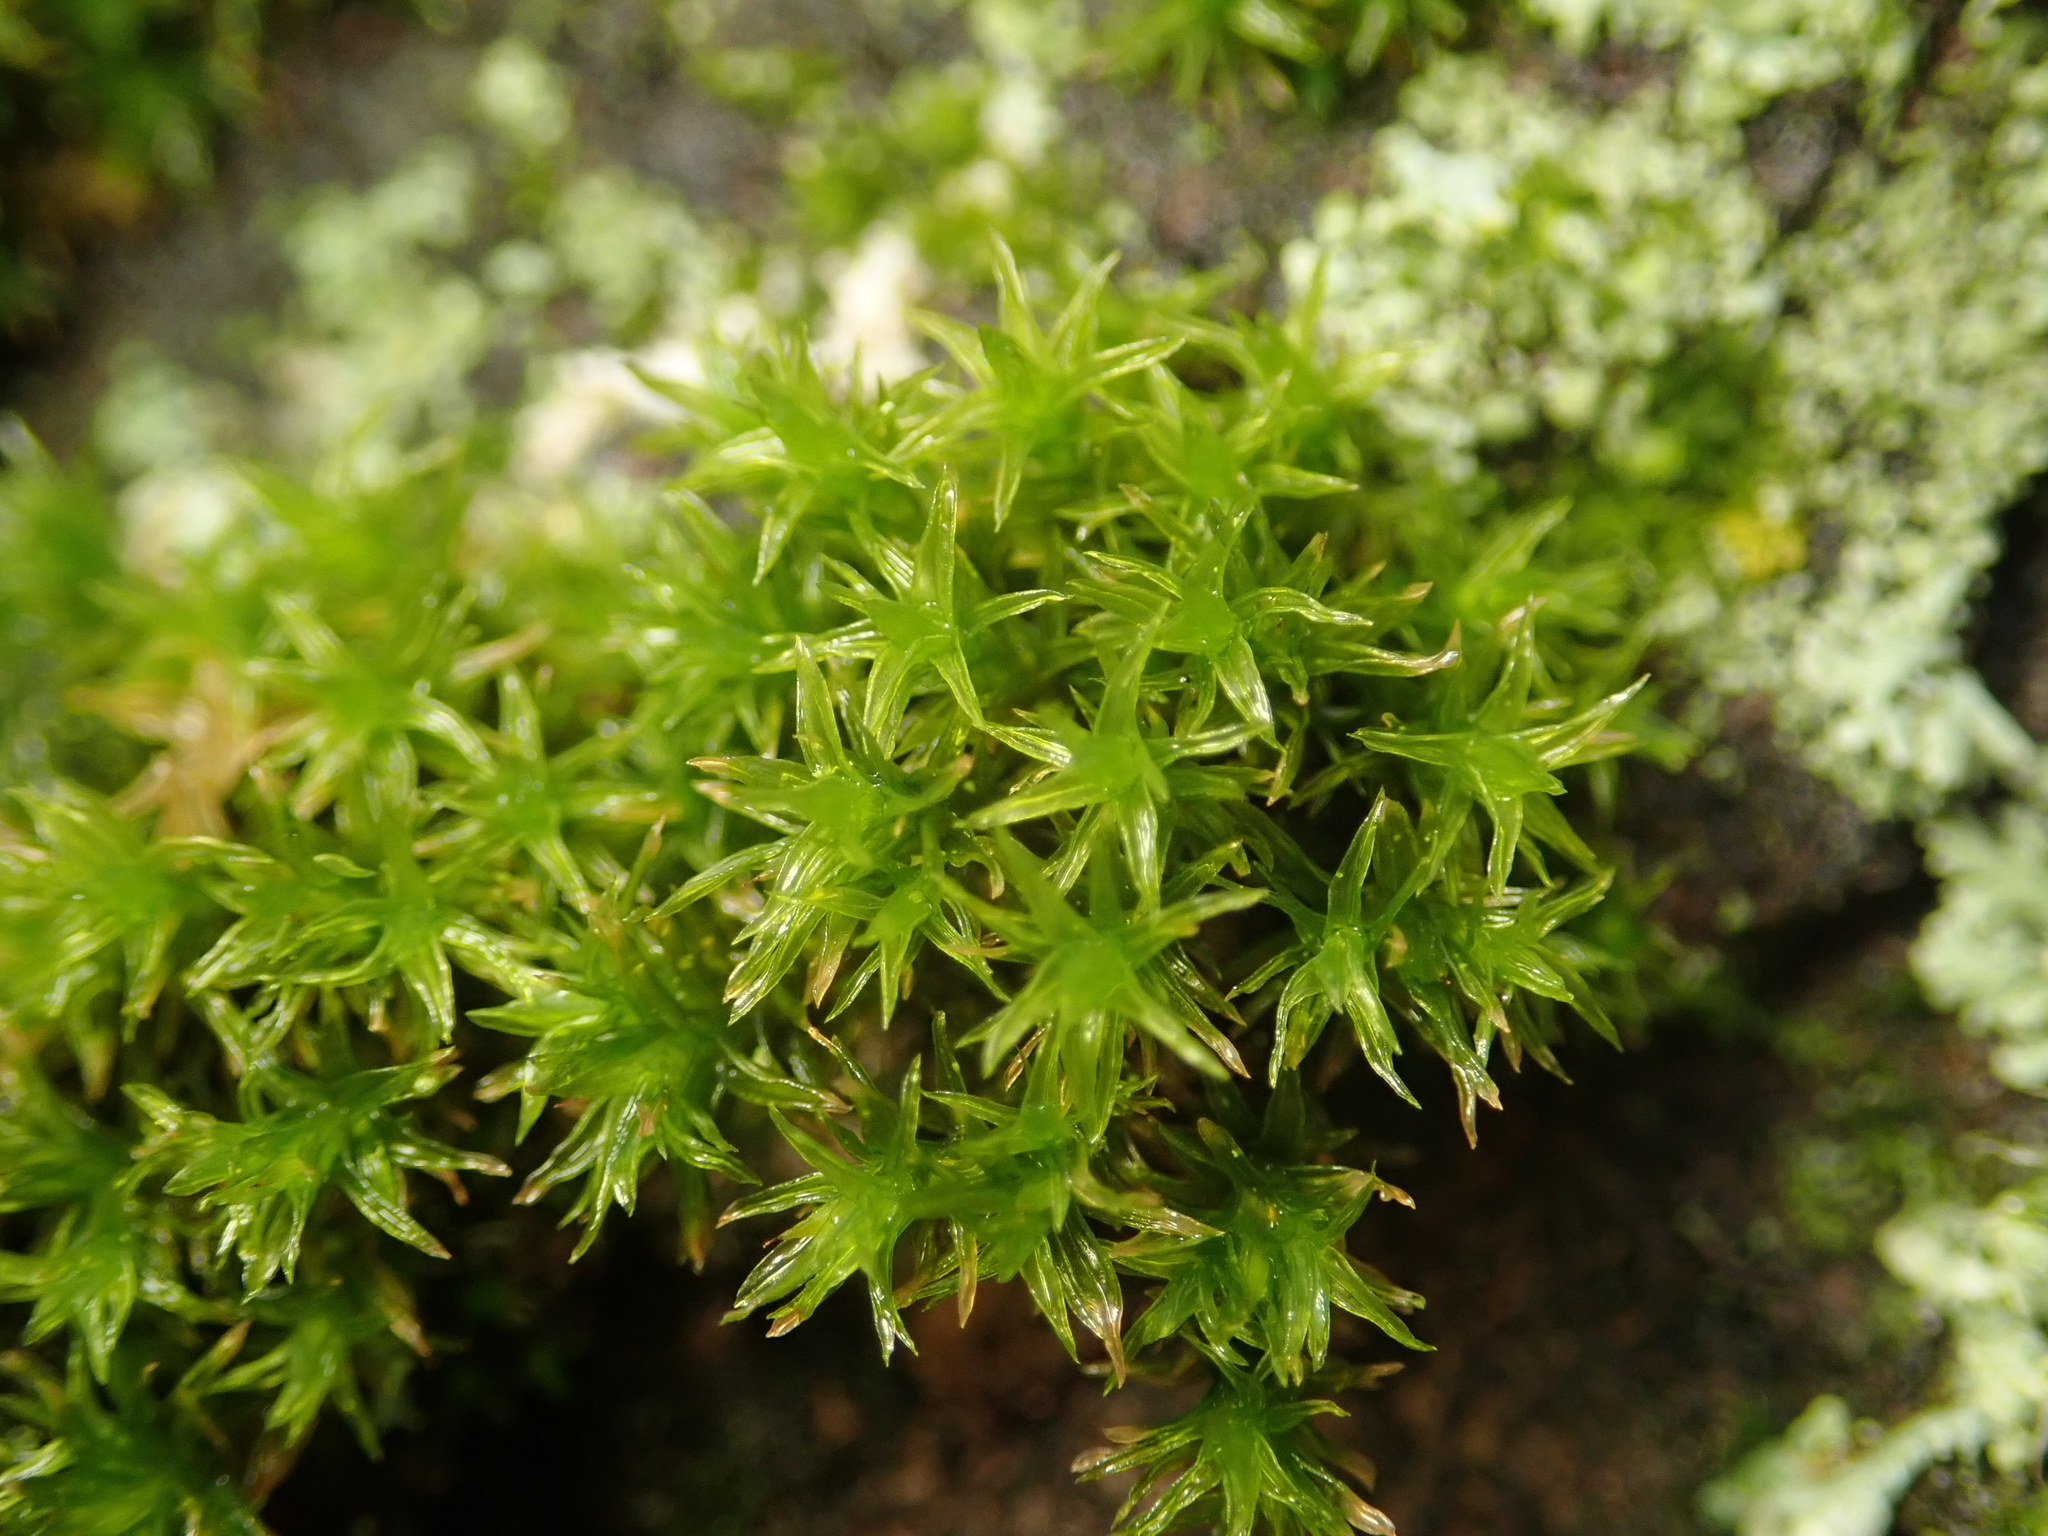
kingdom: Plantae
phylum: Bryophyta
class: Bryopsida
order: Orthotrichales
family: Orthotrichaceae
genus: Lewinskya
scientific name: Lewinskya affinis
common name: Wood bristle-moss
